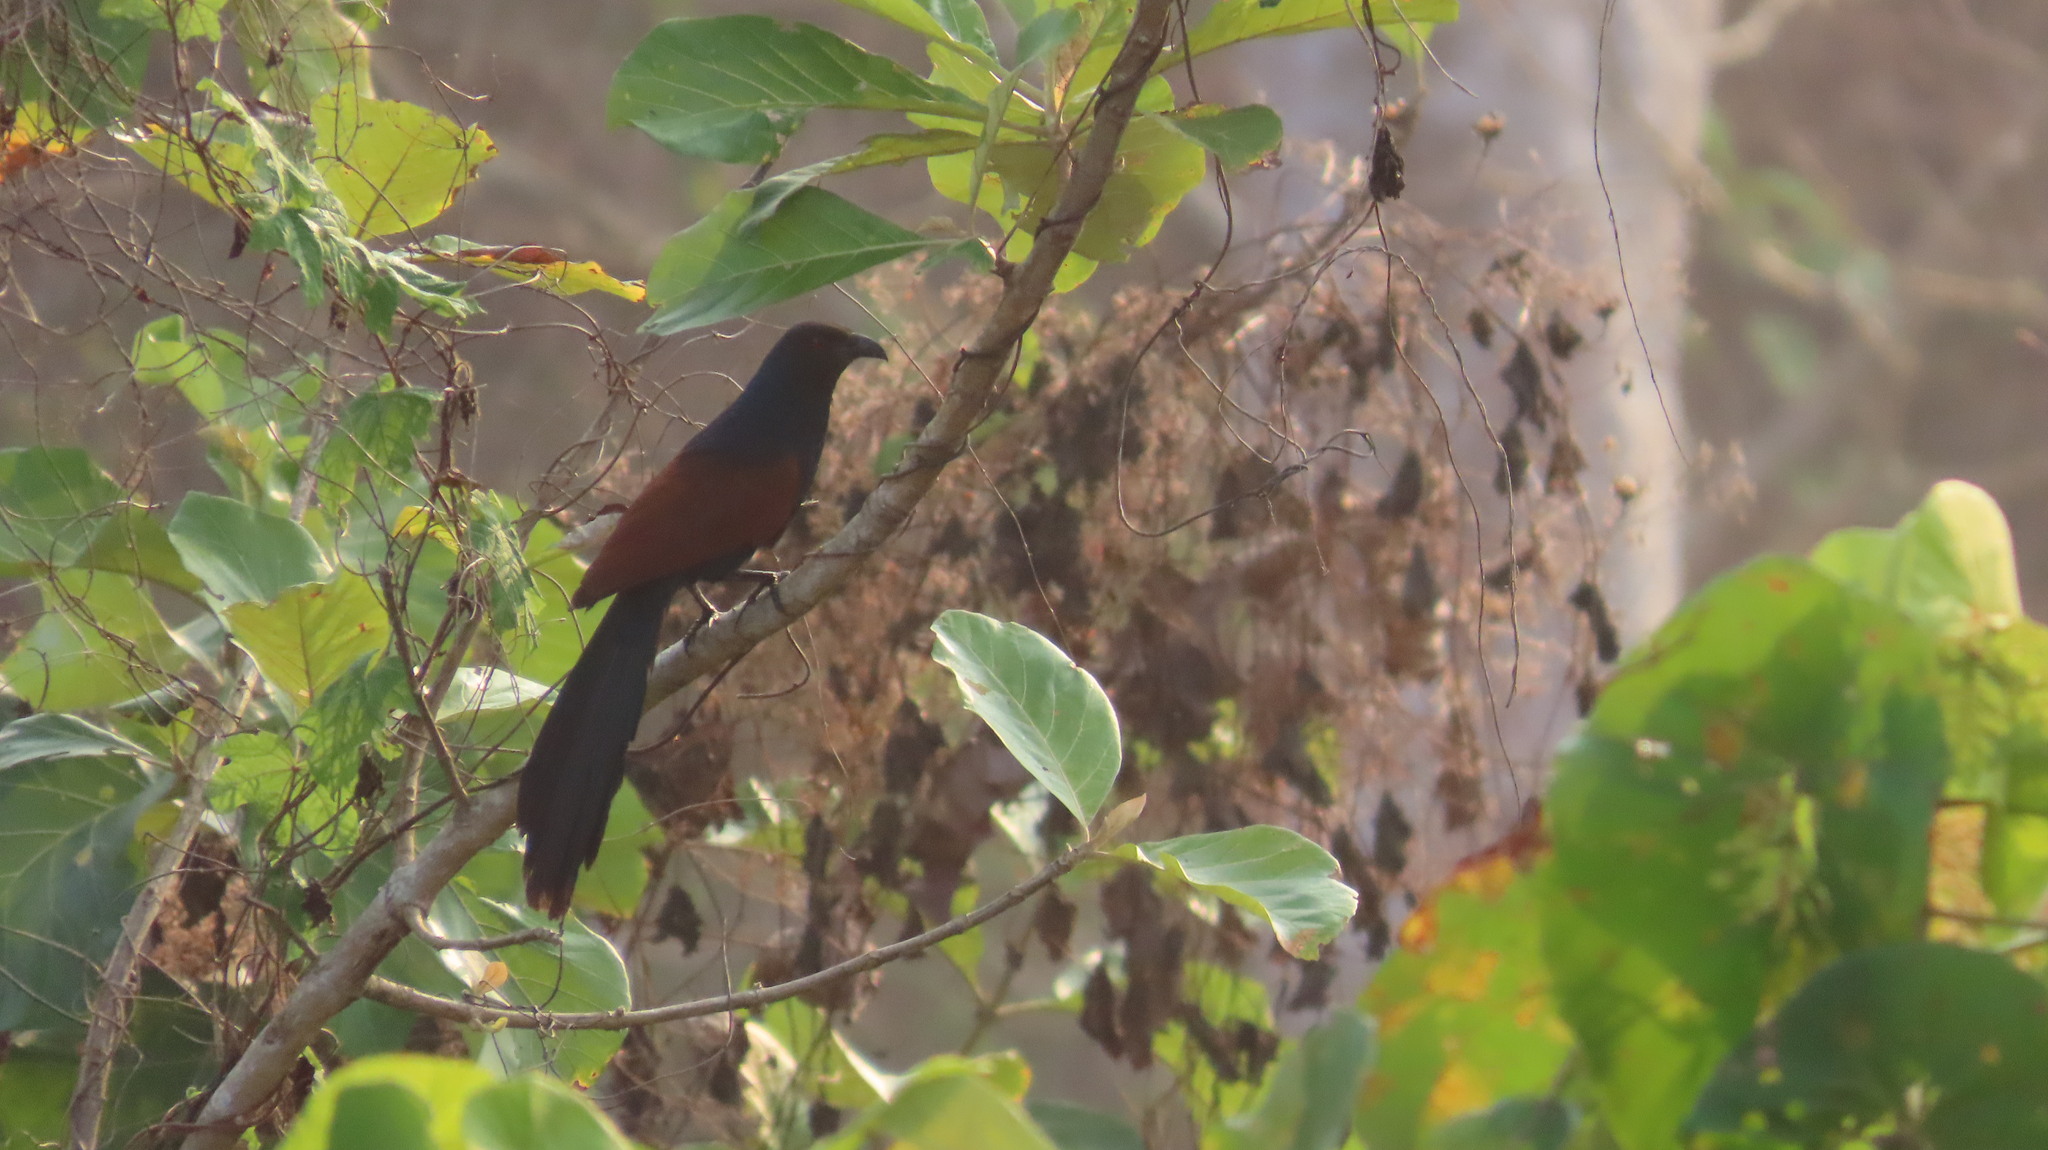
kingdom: Animalia
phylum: Chordata
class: Aves
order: Cuculiformes
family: Cuculidae
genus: Centropus
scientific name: Centropus sinensis
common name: Greater coucal
